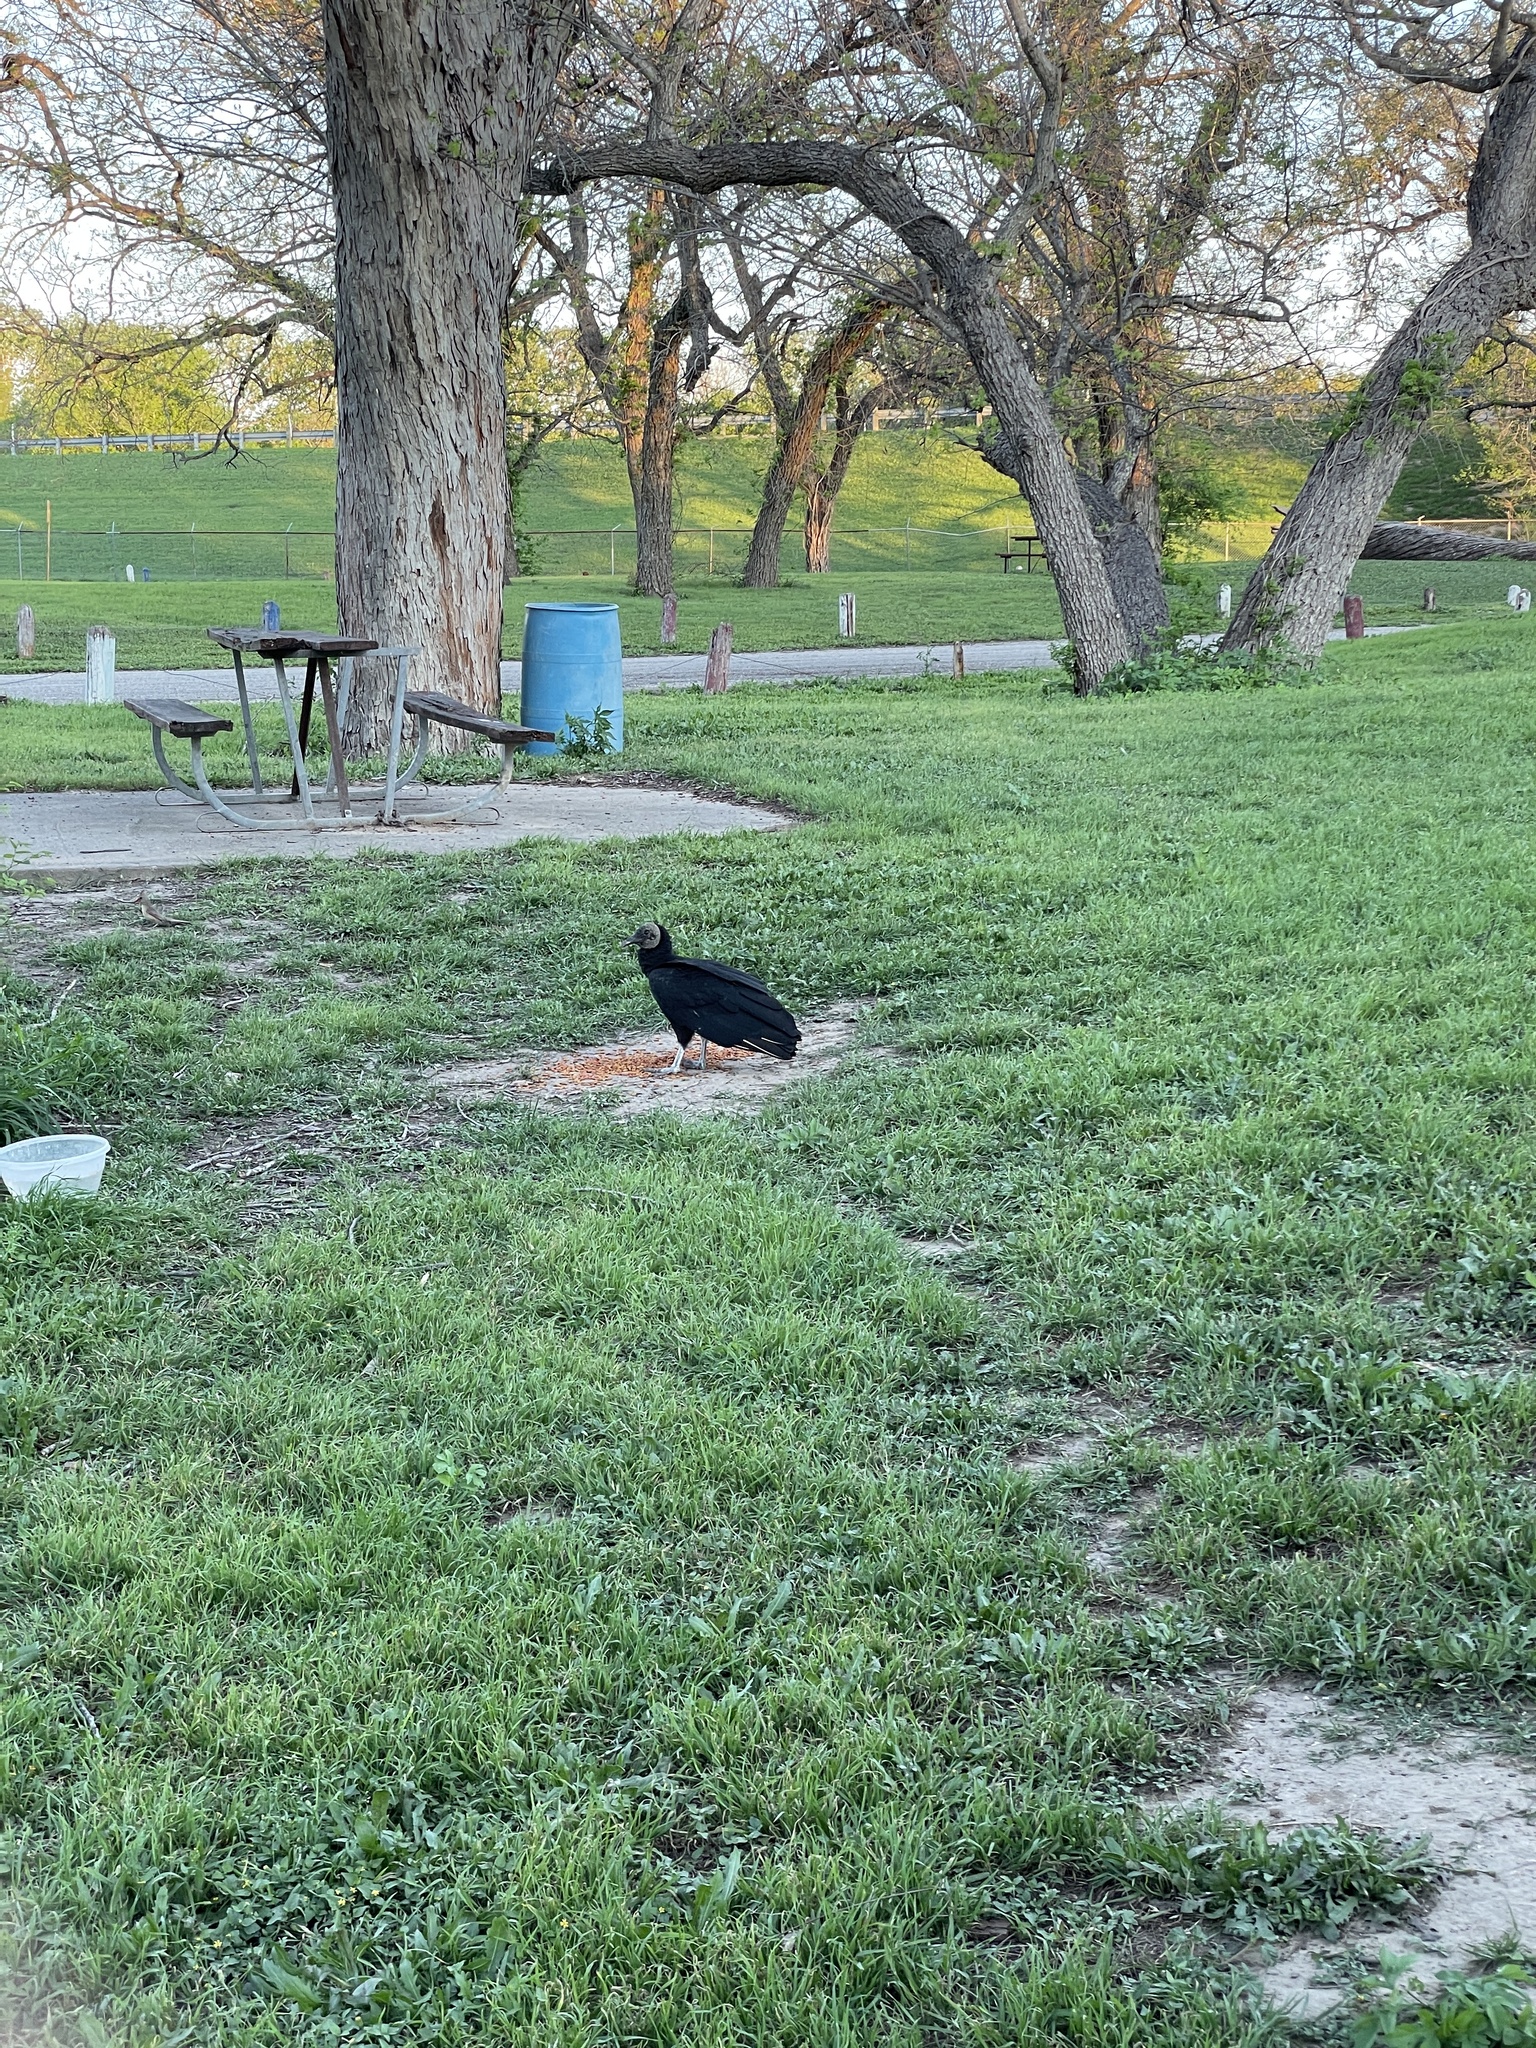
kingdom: Animalia
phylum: Chordata
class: Aves
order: Accipitriformes
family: Cathartidae
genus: Coragyps
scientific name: Coragyps atratus
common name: Black vulture
